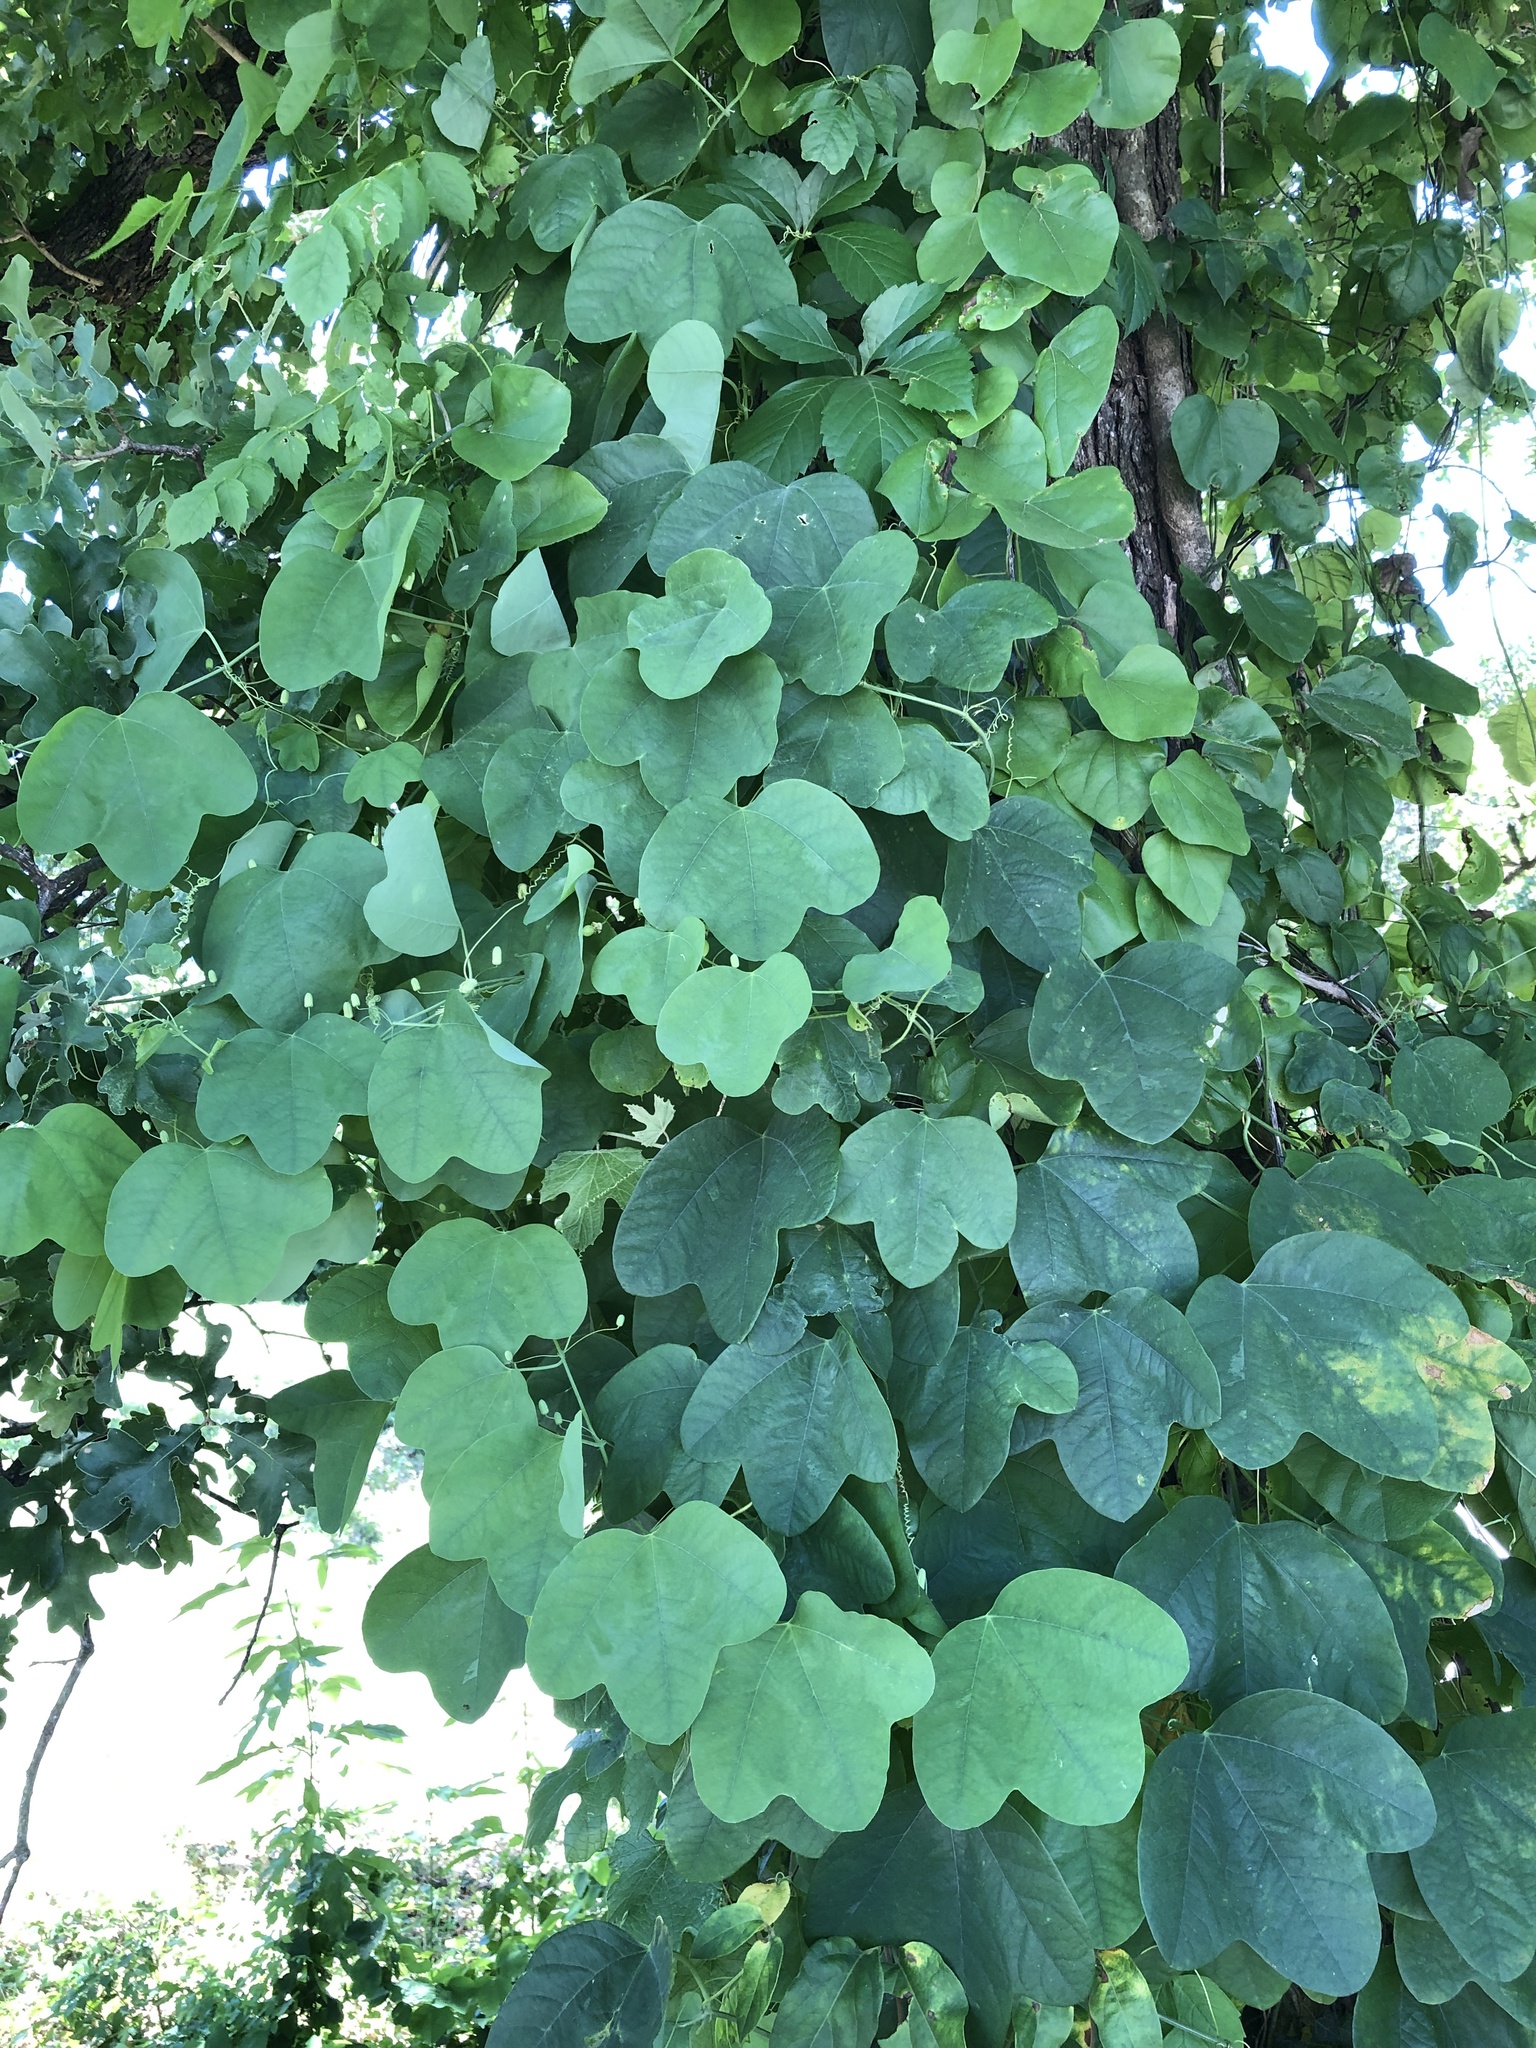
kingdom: Plantae
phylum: Tracheophyta
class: Magnoliopsida
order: Malpighiales
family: Passifloraceae
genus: Passiflora
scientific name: Passiflora lutea
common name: Yellow passionflower
